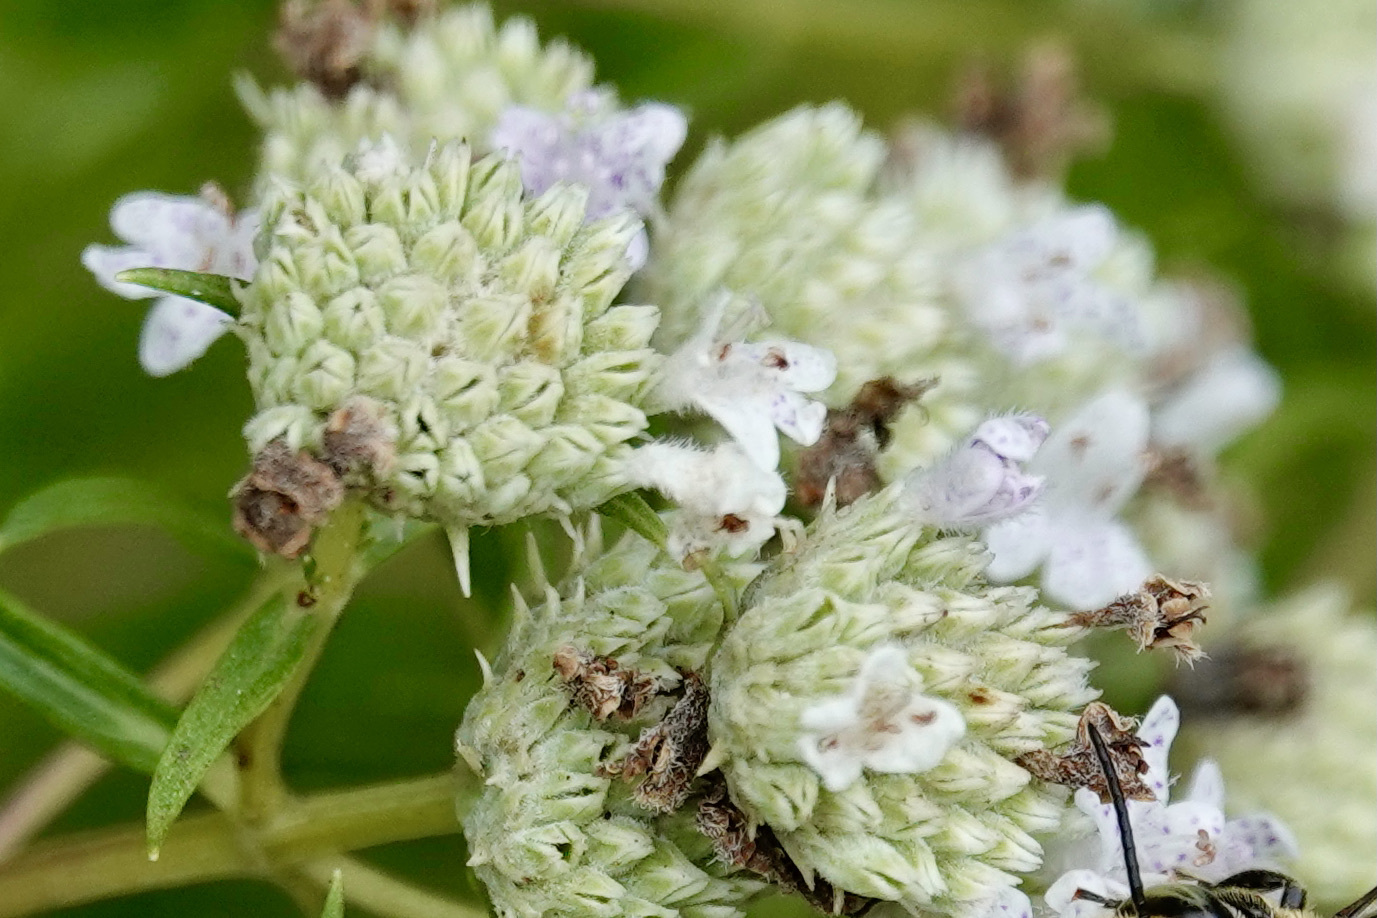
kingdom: Plantae
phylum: Tracheophyta
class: Magnoliopsida
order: Lamiales
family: Lamiaceae
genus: Pycnanthemum
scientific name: Pycnanthemum tenuifolium
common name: Narrow-leaf mountain-mint
